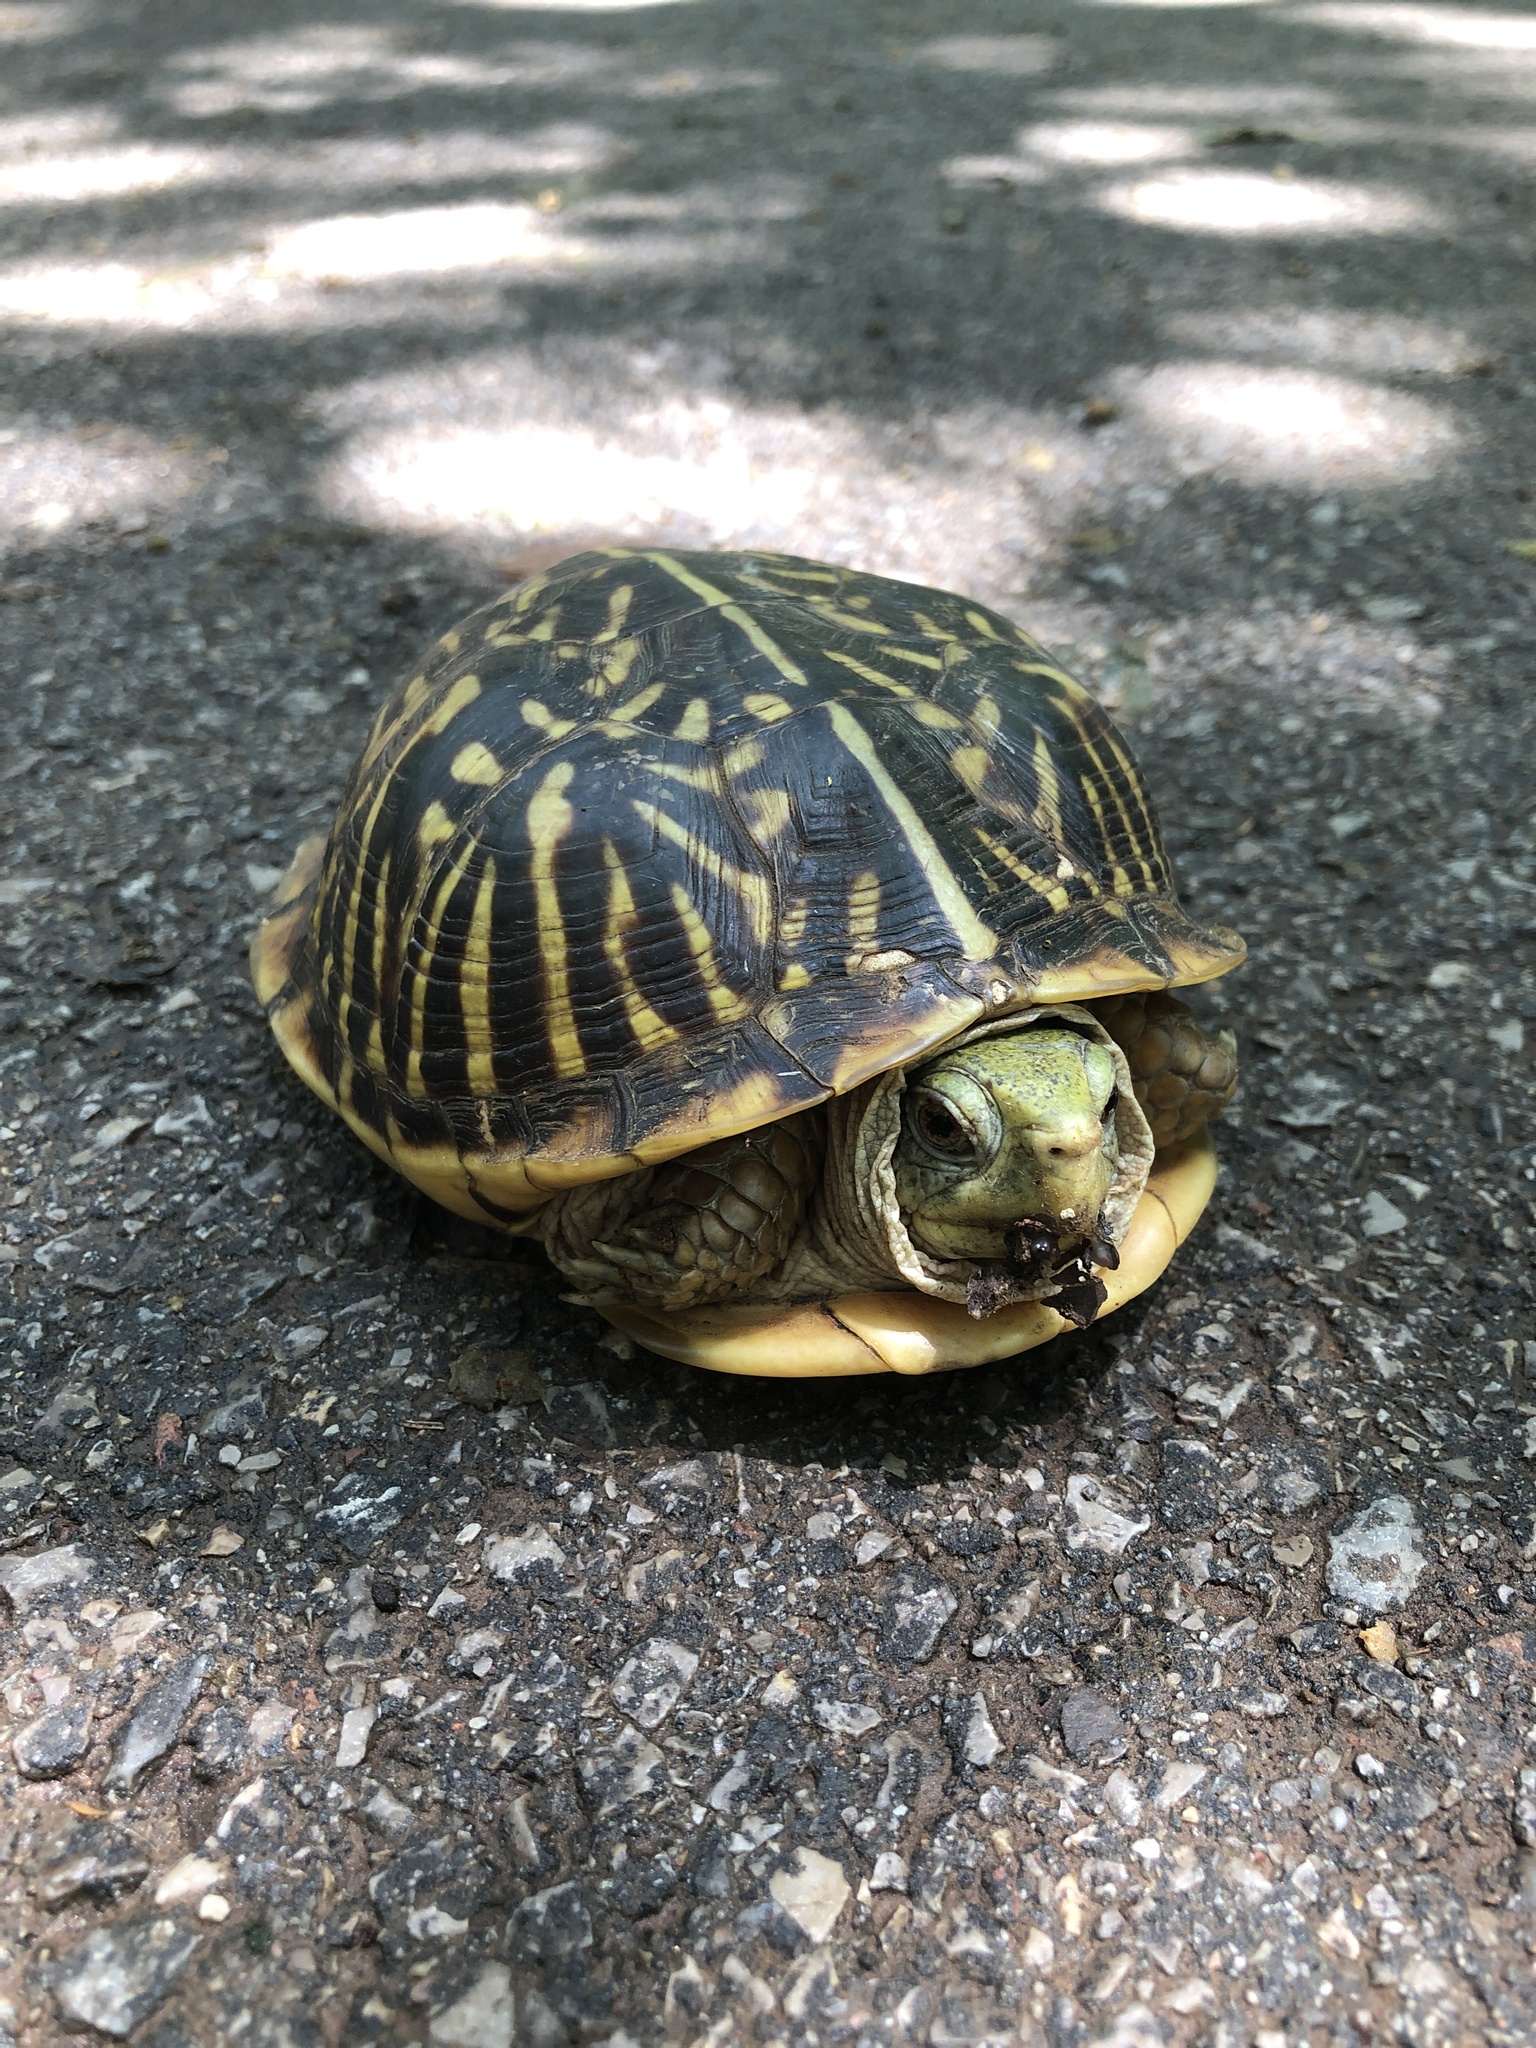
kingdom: Animalia
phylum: Chordata
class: Testudines
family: Emydidae
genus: Terrapene
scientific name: Terrapene ornata
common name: Western box turtle
